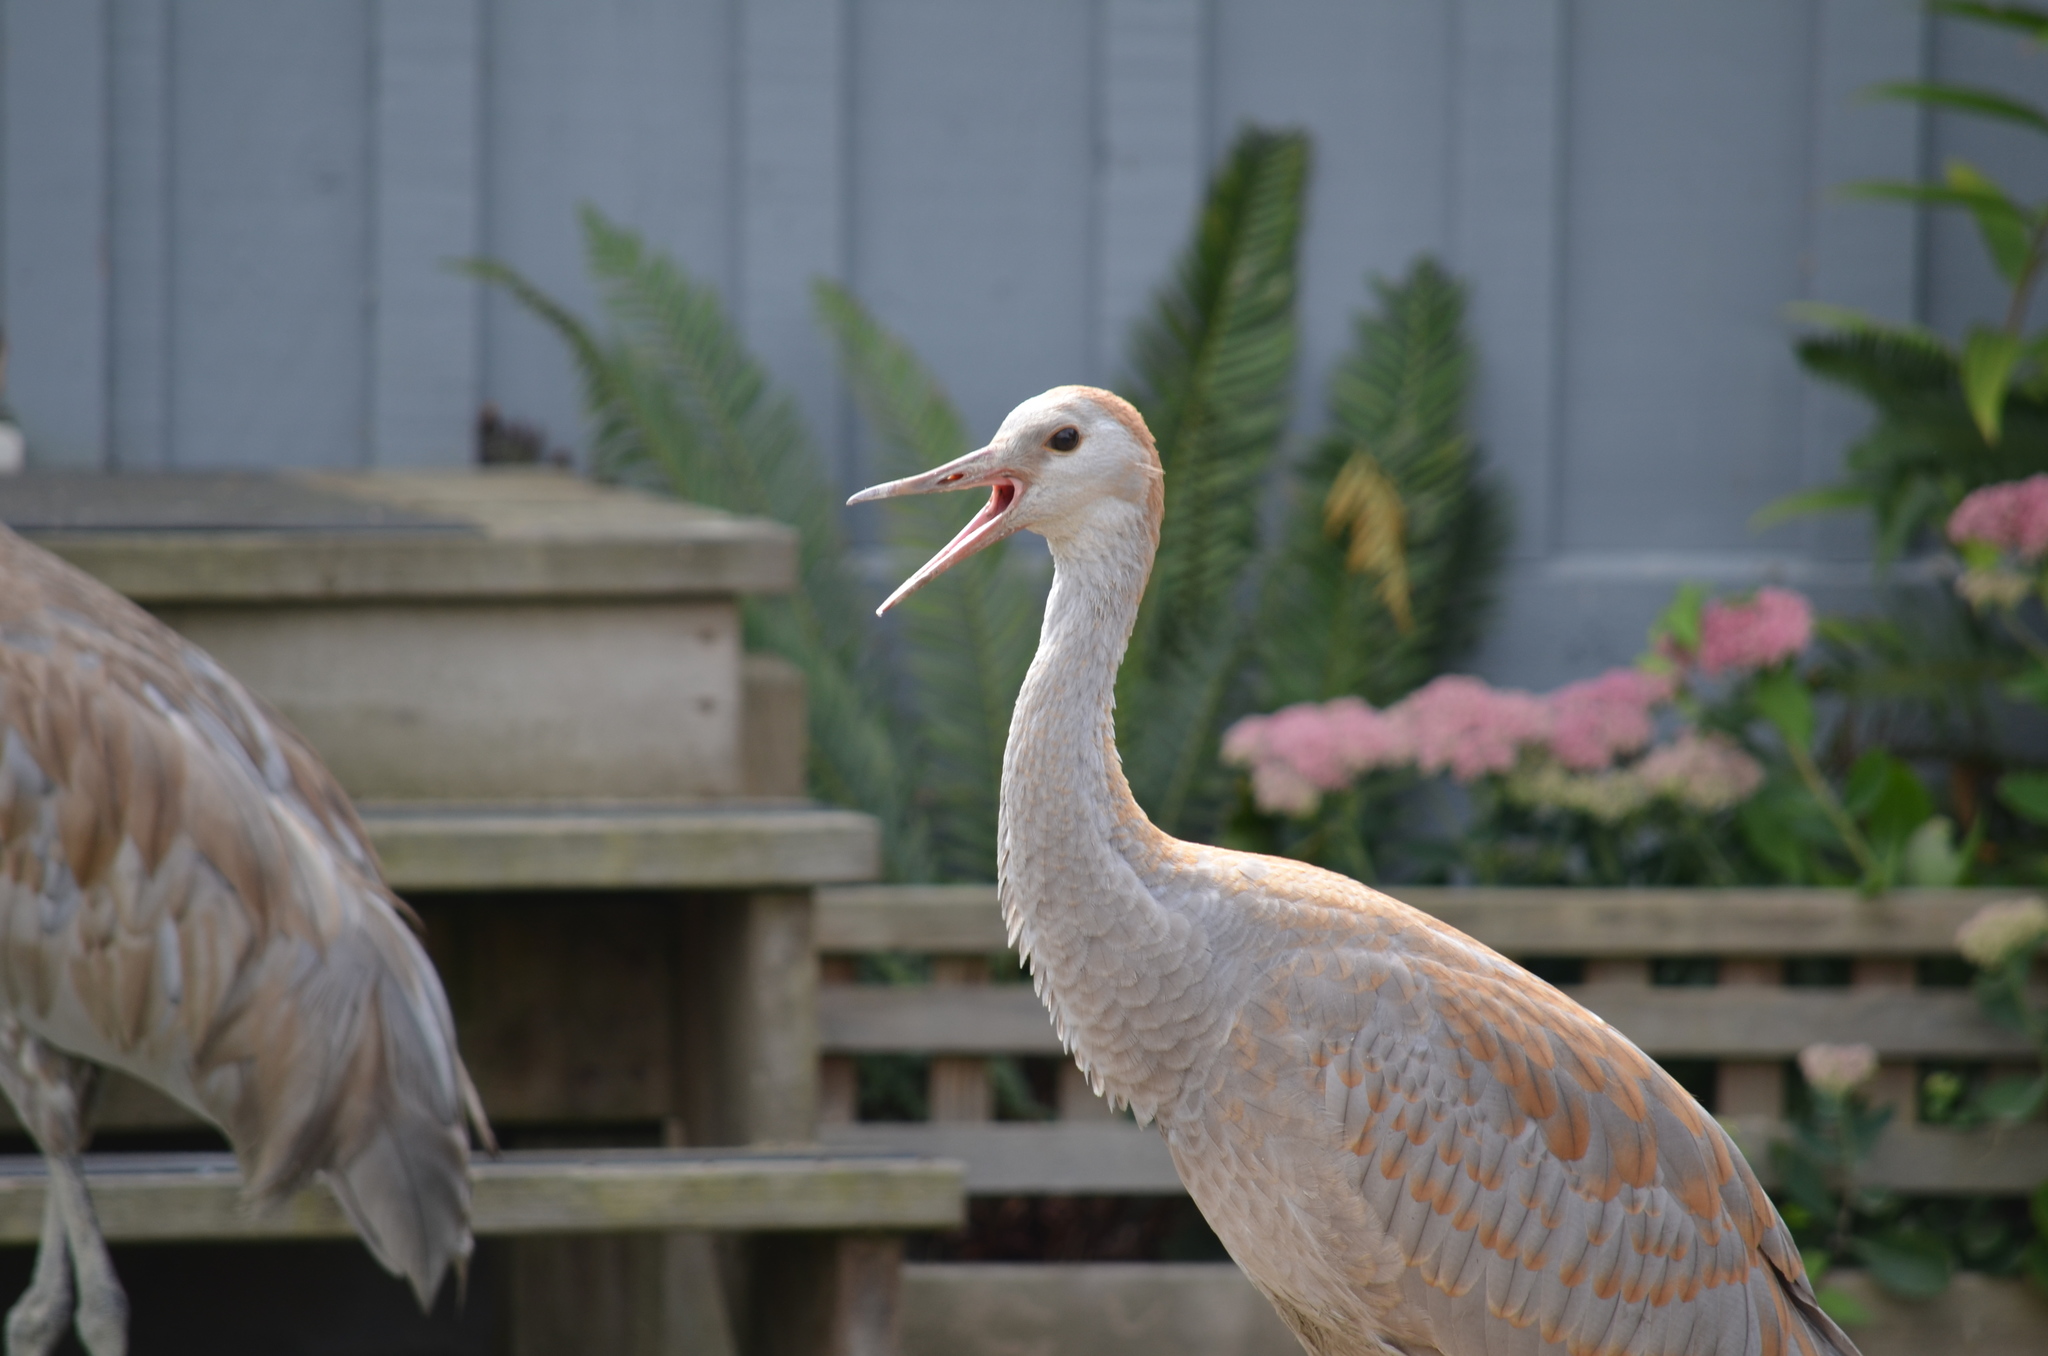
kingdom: Animalia
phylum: Chordata
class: Aves
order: Gruiformes
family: Gruidae
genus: Grus
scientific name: Grus canadensis
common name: Sandhill crane
